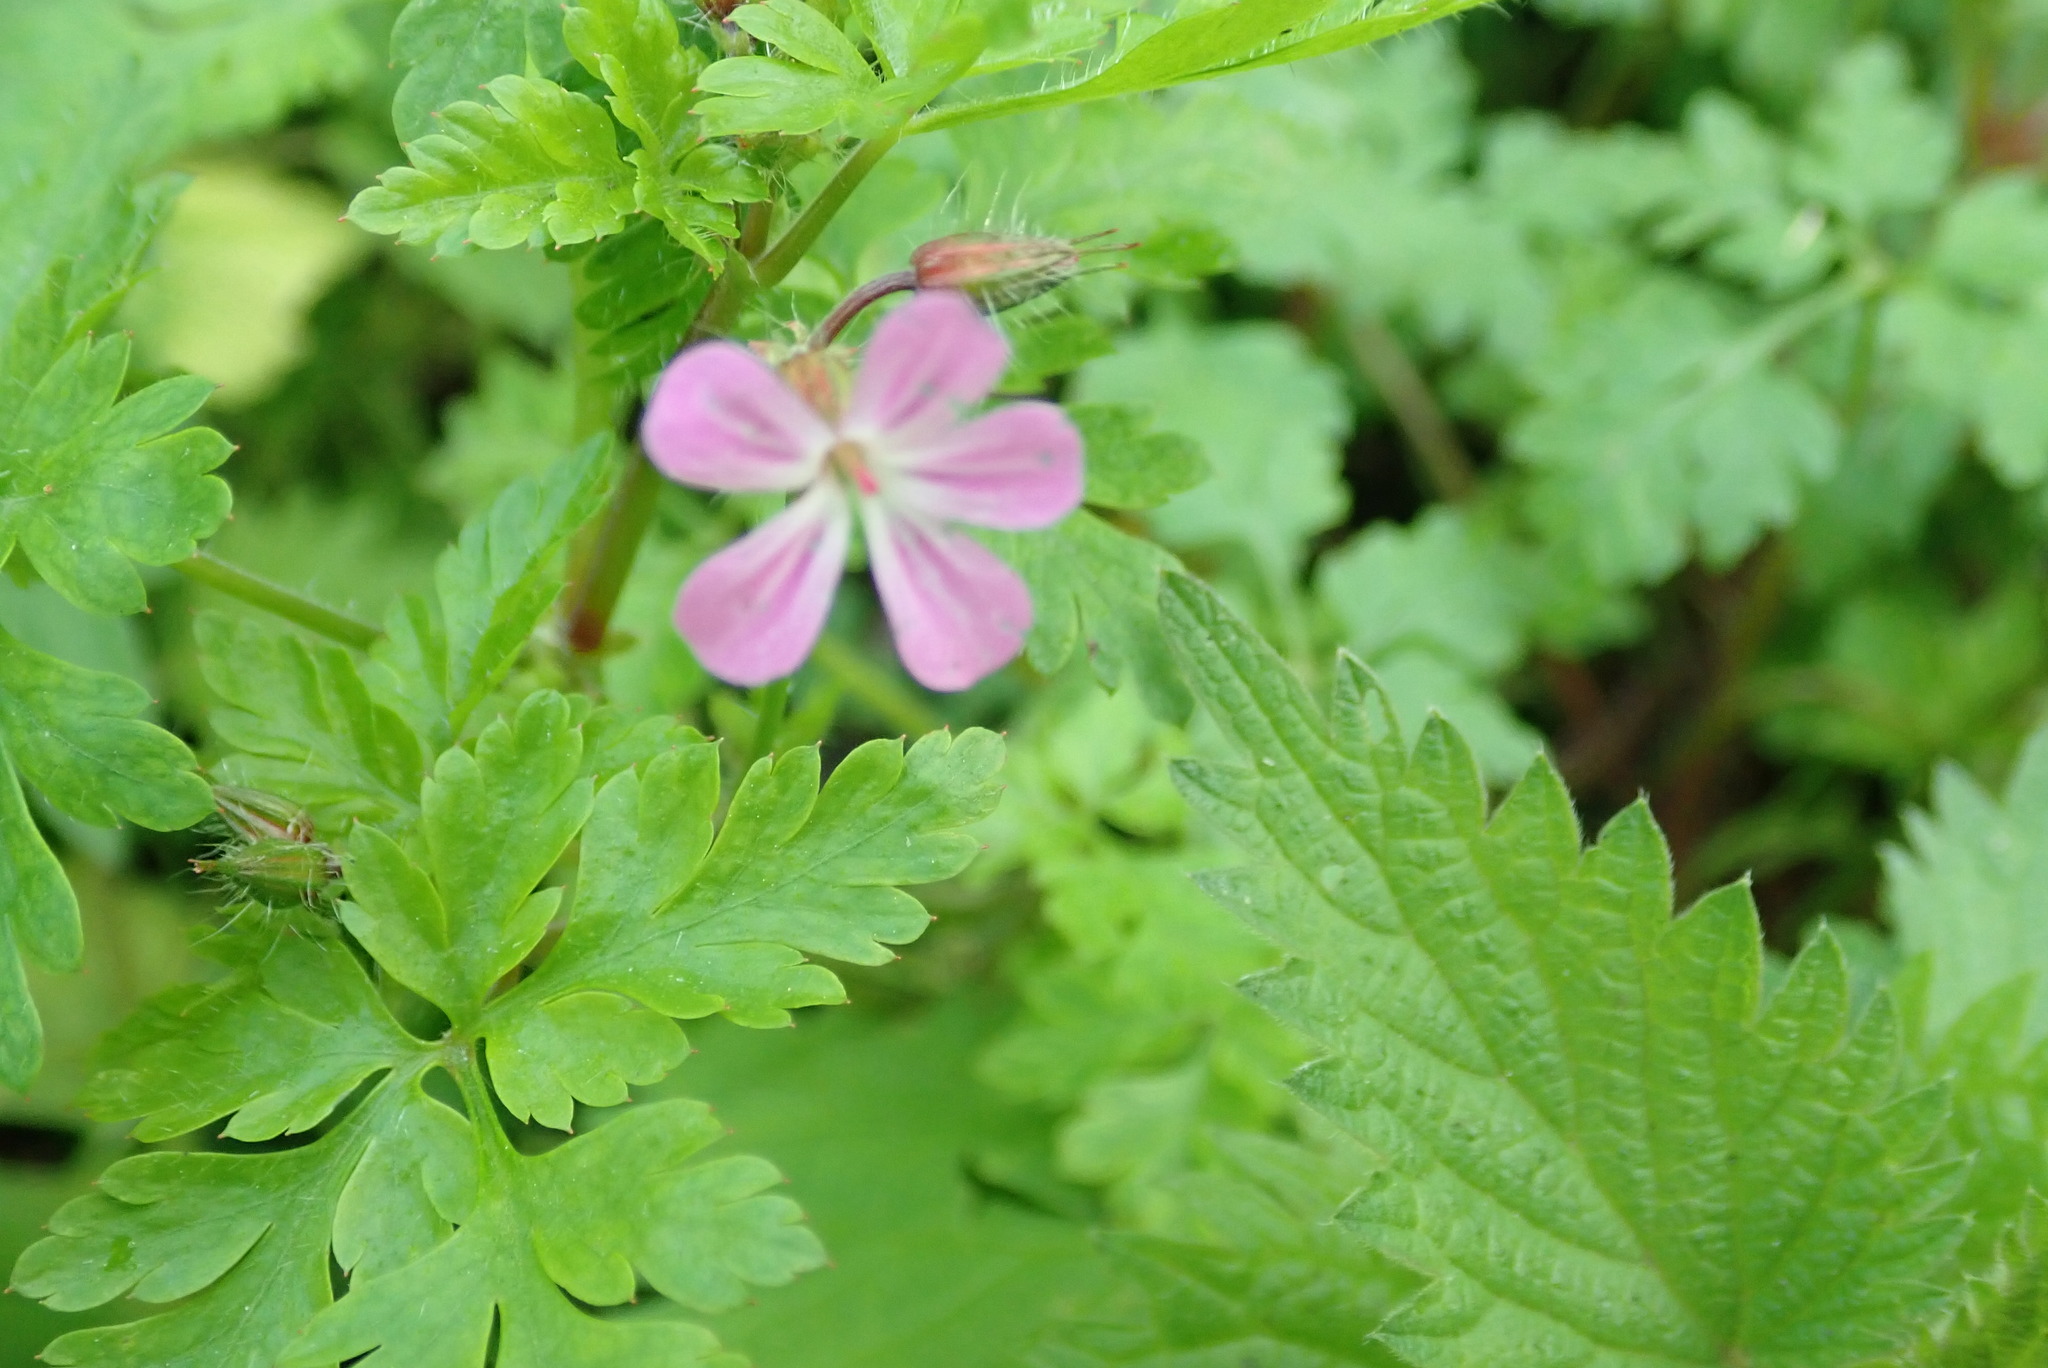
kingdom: Plantae
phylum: Tracheophyta
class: Magnoliopsida
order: Geraniales
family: Geraniaceae
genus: Geranium
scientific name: Geranium robertianum
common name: Herb-robert
